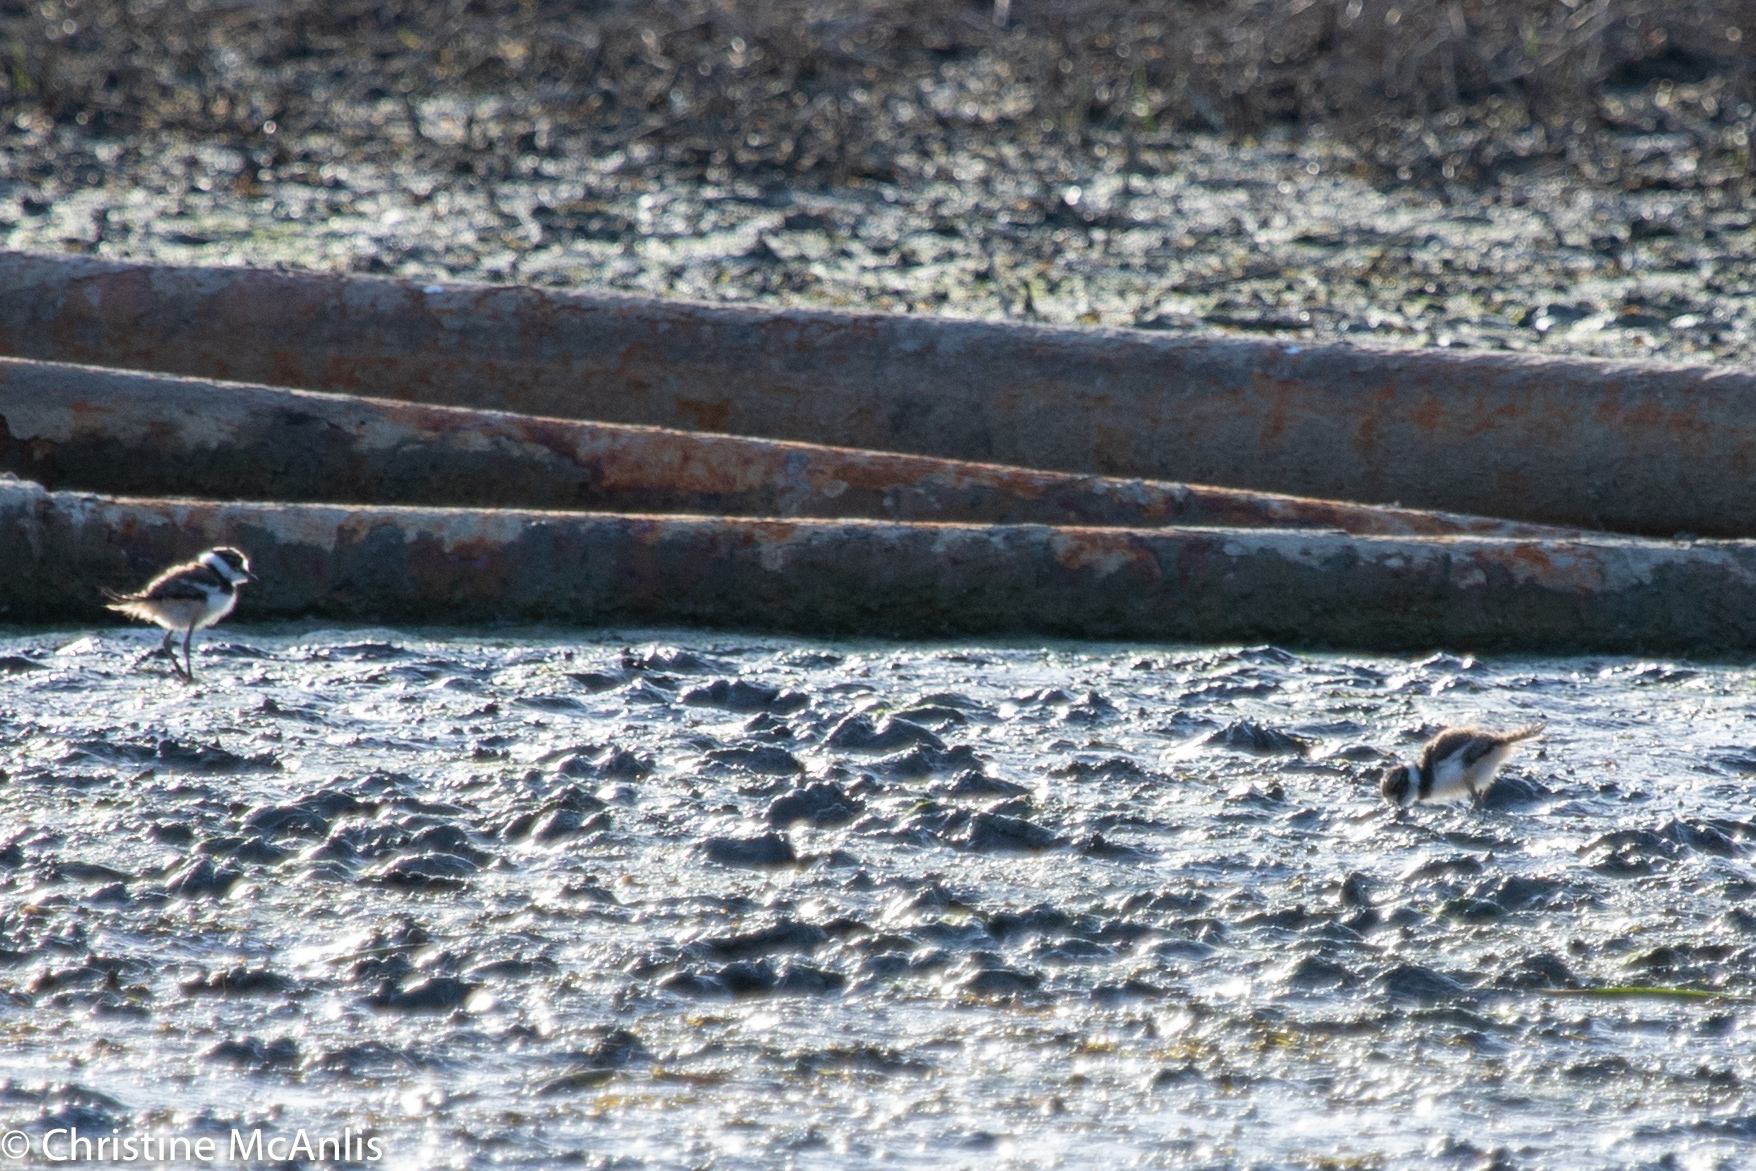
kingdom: Animalia
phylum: Chordata
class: Aves
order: Charadriiformes
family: Charadriidae
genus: Charadrius
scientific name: Charadrius vociferus
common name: Killdeer
